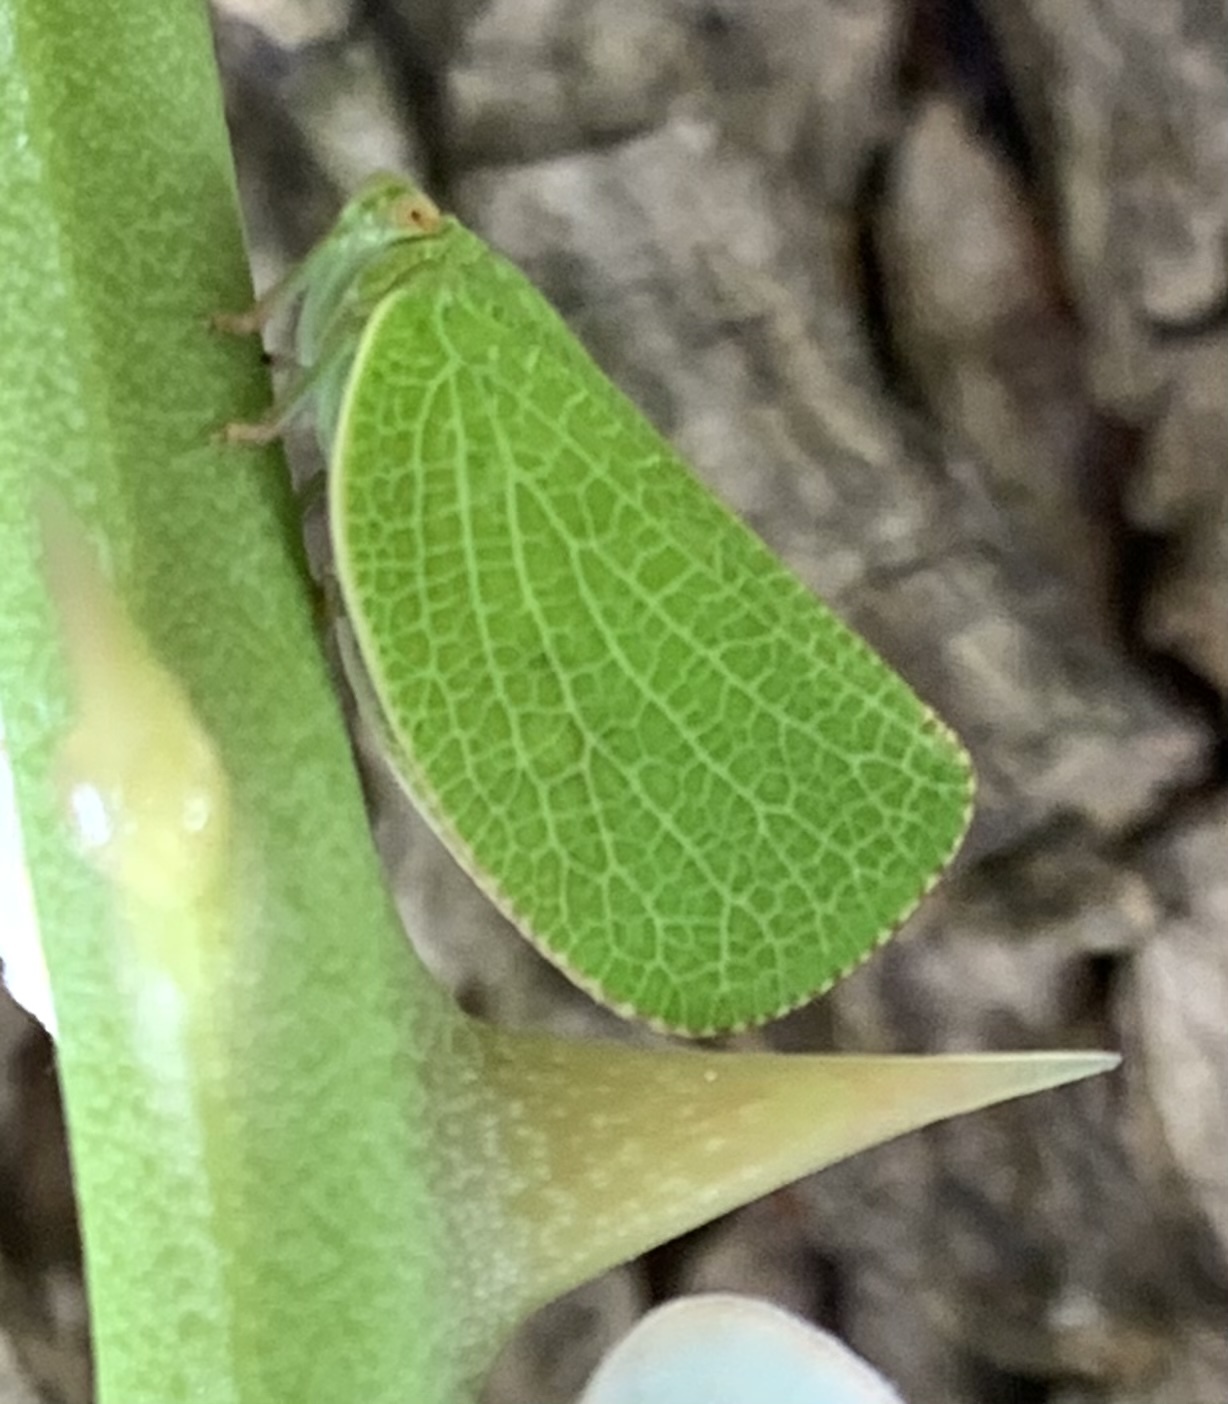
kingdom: Animalia
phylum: Arthropoda
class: Insecta
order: Hemiptera
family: Acanaloniidae
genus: Acanalonia
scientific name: Acanalonia conica
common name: Green cone-headed planthopper
